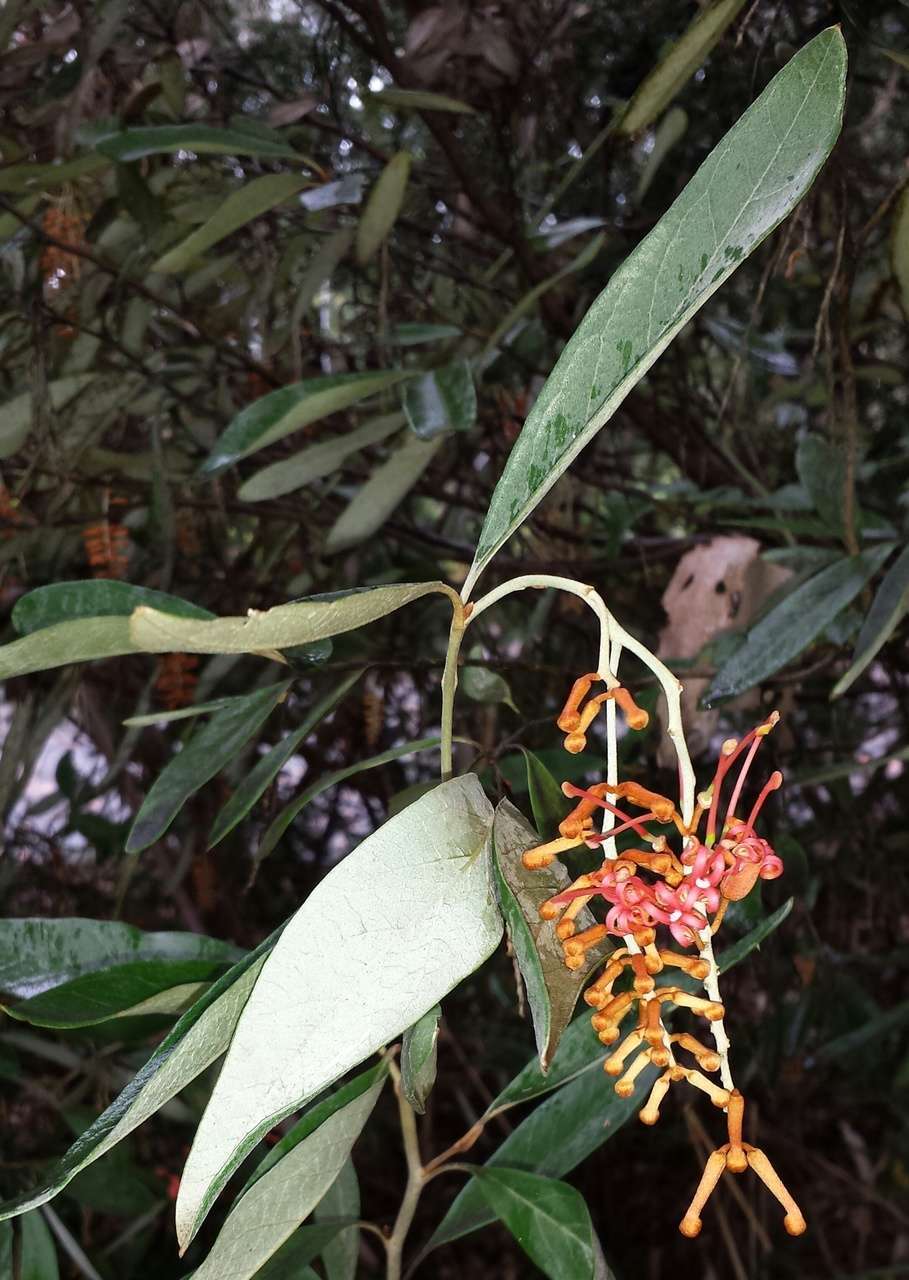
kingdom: Plantae
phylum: Tracheophyta
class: Magnoliopsida
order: Proteales
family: Proteaceae
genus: Grevillea
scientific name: Grevillea victoriae
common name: Royal grevillea
